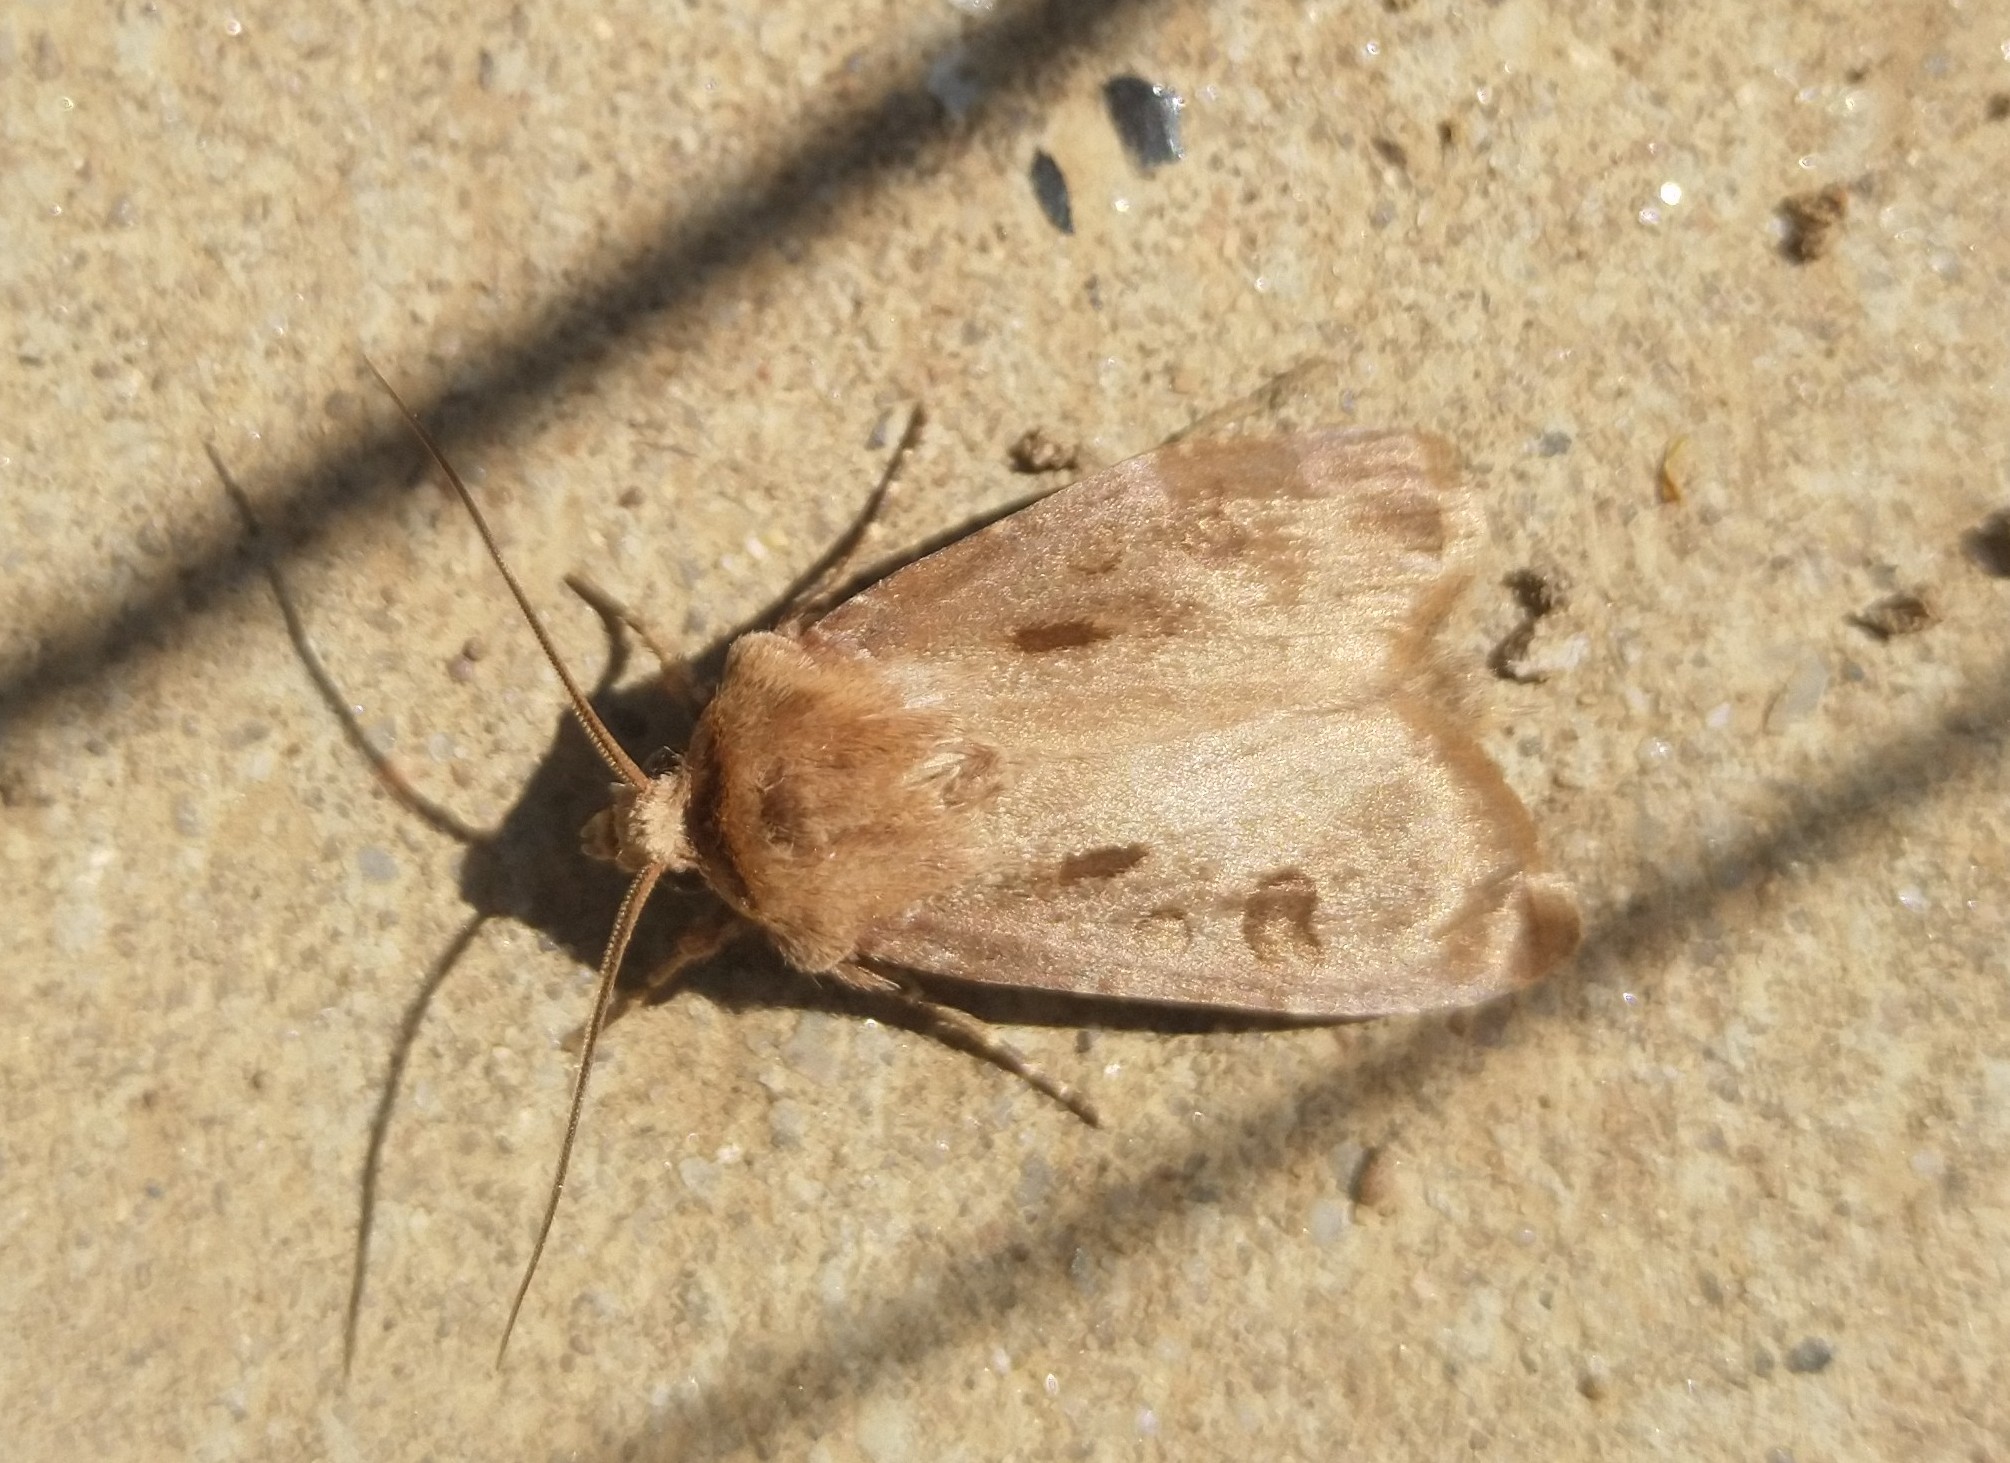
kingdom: Animalia
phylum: Arthropoda
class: Insecta
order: Lepidoptera
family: Noctuidae
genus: Agrotis
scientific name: Agrotis exclamationis
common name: Heart and dart
